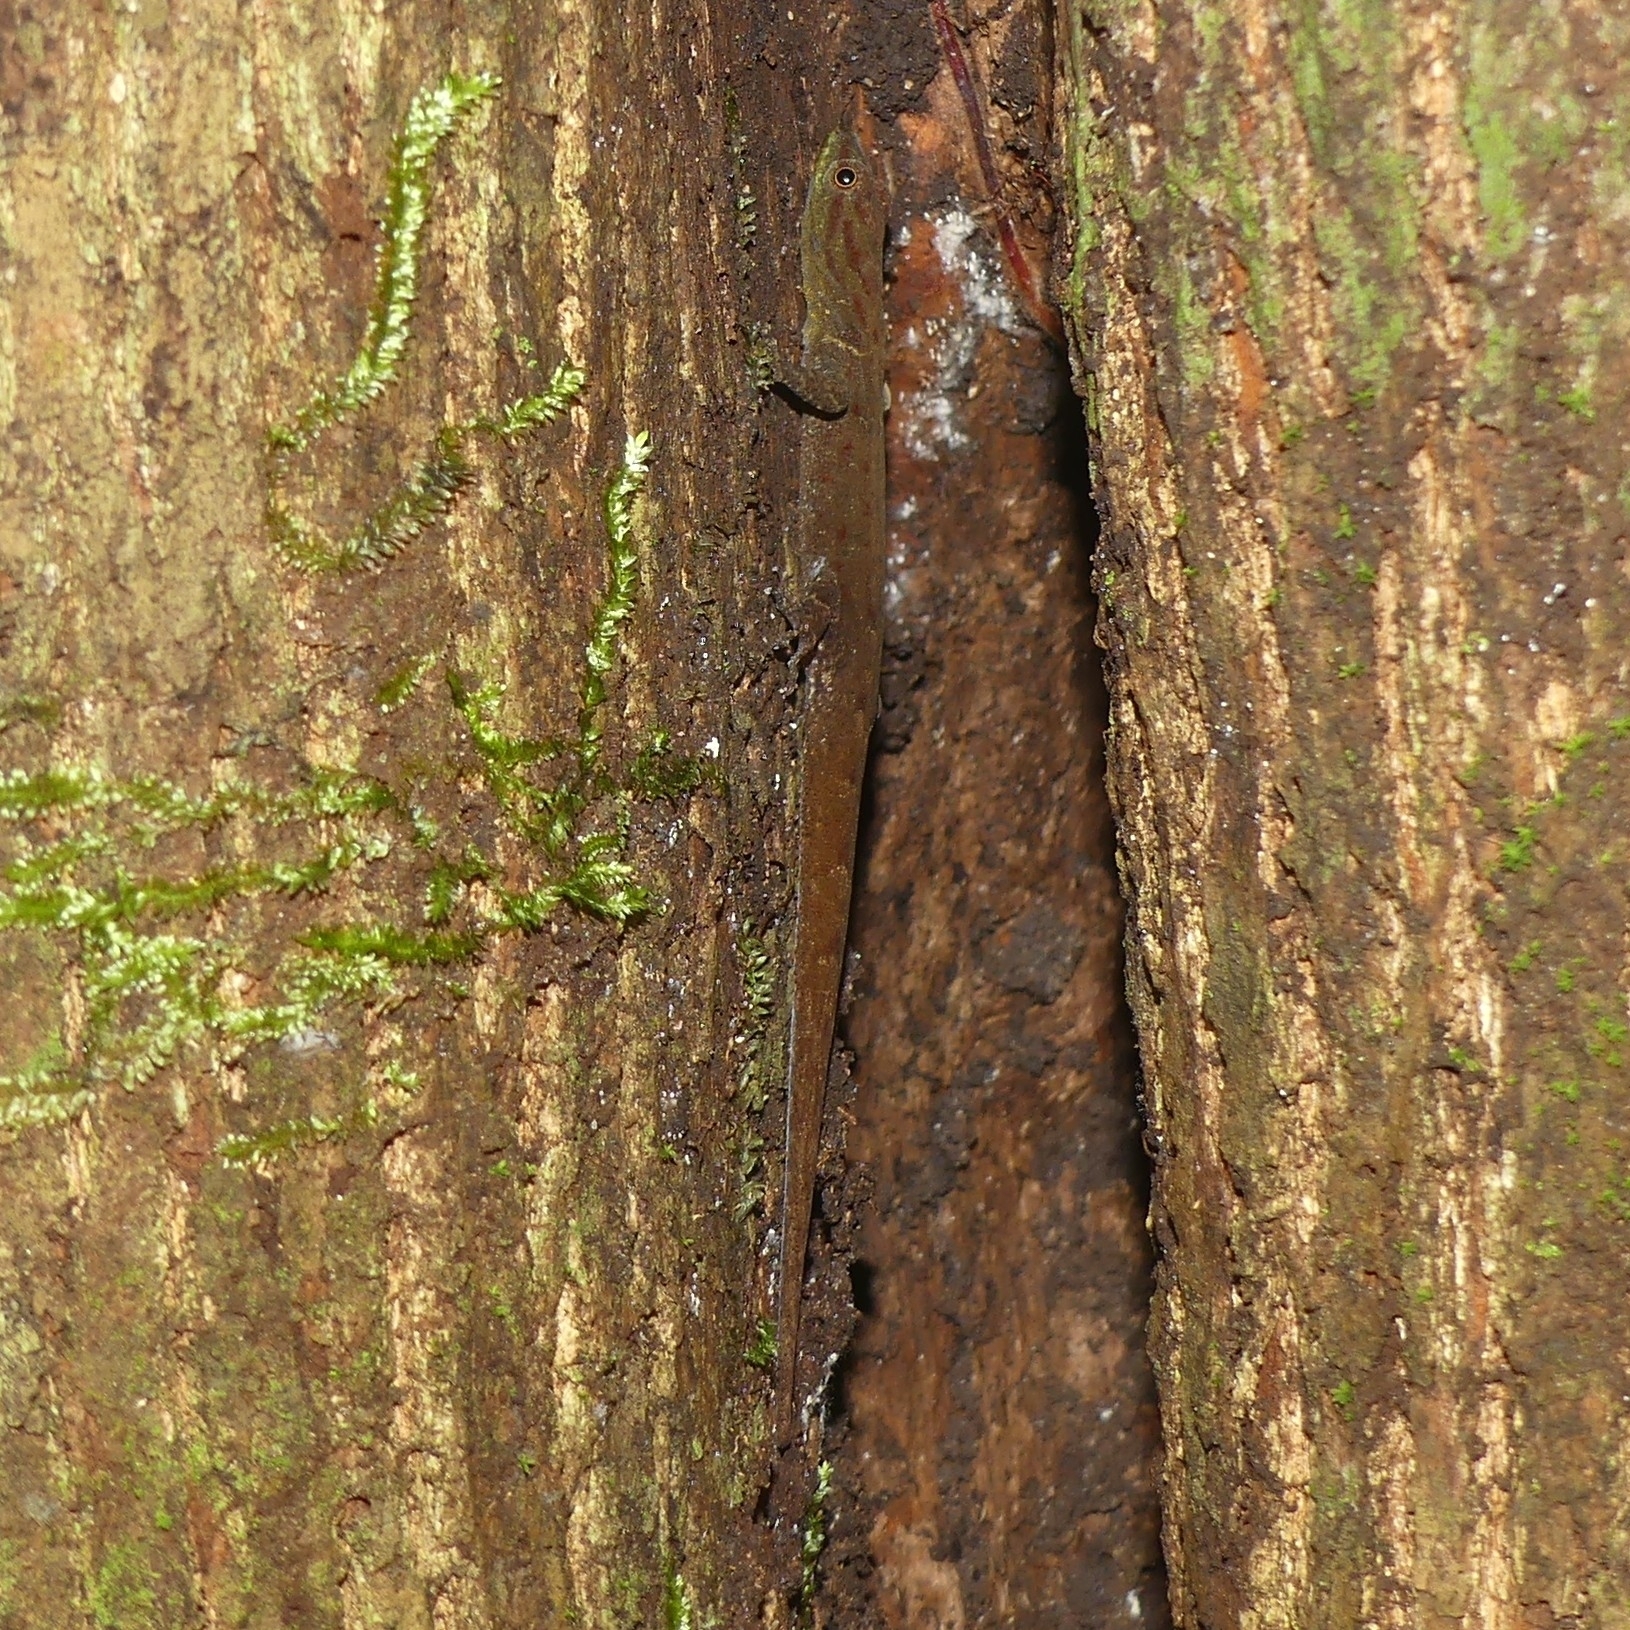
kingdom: Animalia
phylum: Chordata
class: Squamata
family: Sphaerodactylidae
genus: Gonatodes
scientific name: Gonatodes humeralis
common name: South american clawed gecko
